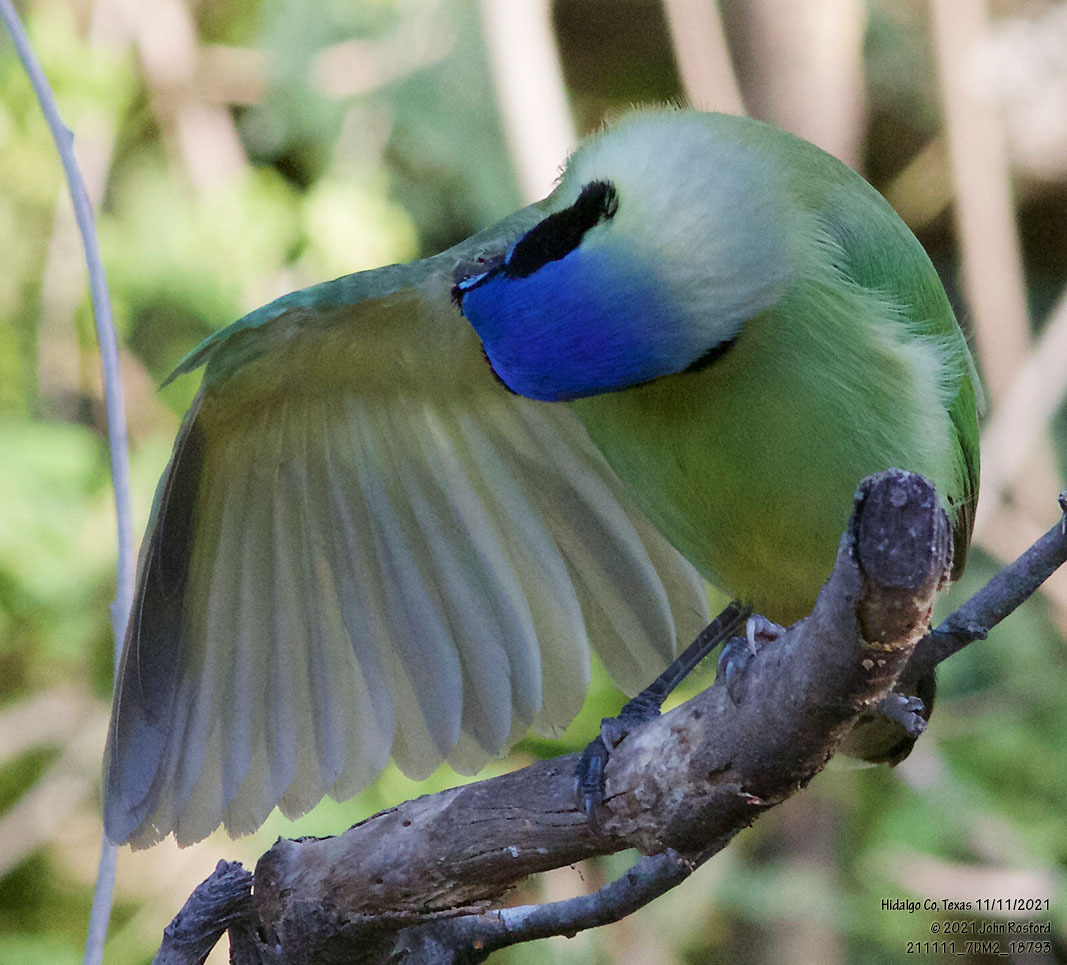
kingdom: Animalia
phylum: Chordata
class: Aves
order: Passeriformes
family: Corvidae
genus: Cyanocorax
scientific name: Cyanocorax yncas
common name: Green jay
